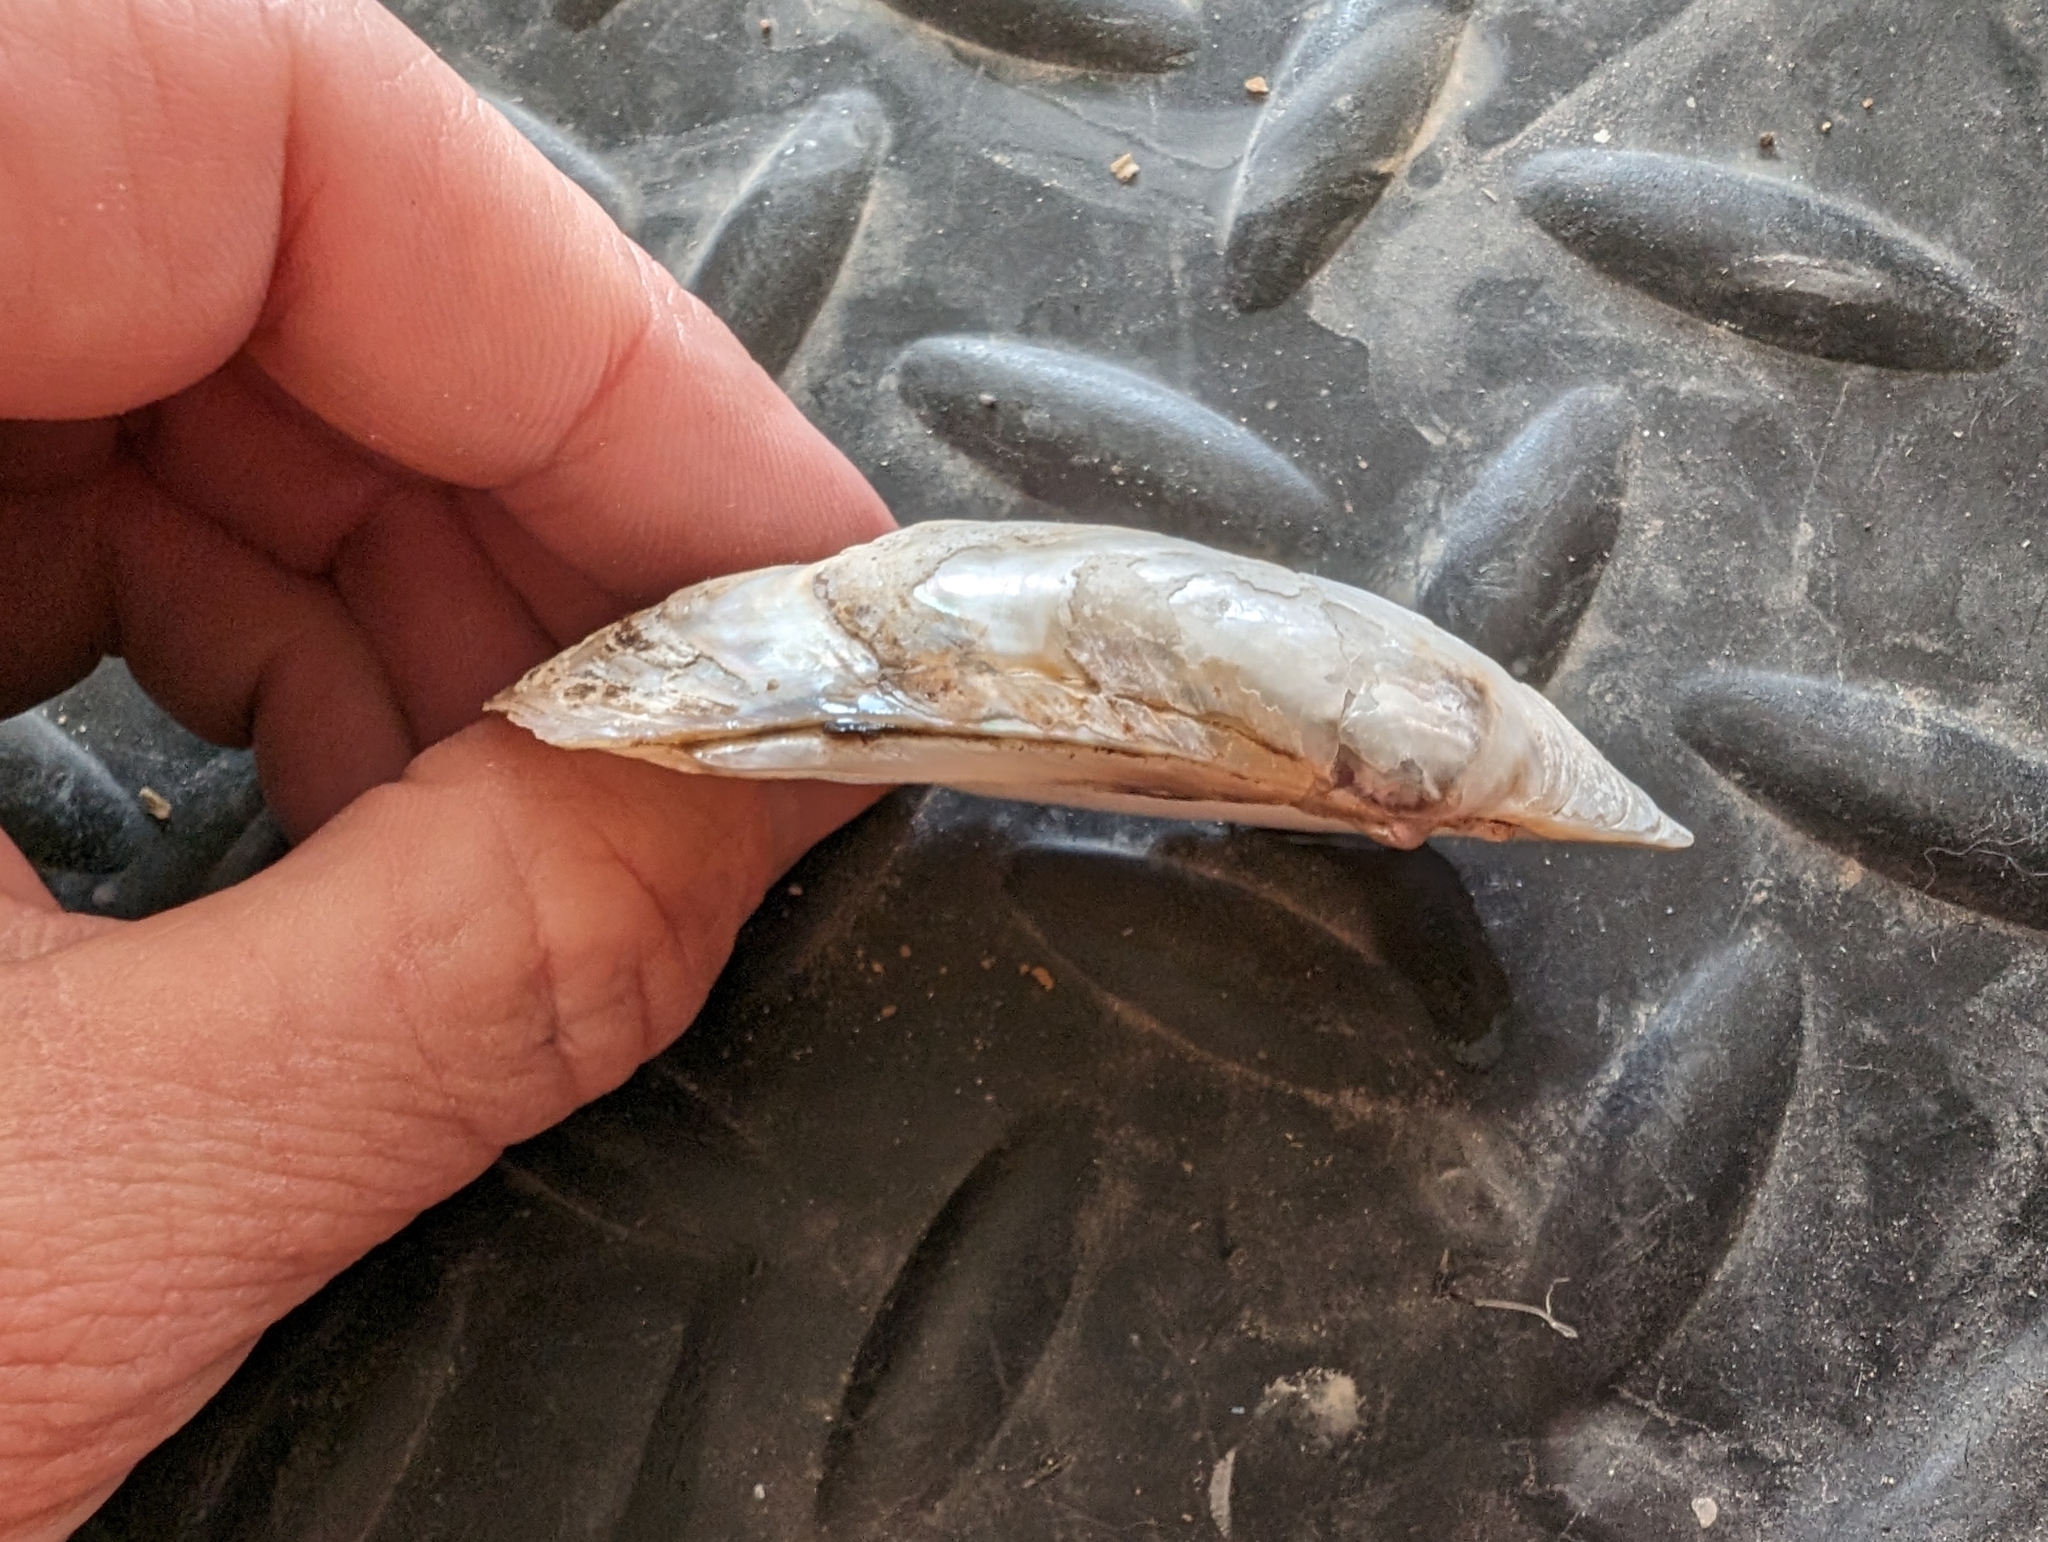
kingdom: Animalia
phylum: Mollusca
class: Bivalvia
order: Unionida
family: Unionidae
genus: Lampsilis
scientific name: Lampsilis siliquoidea
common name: Fatmucket
